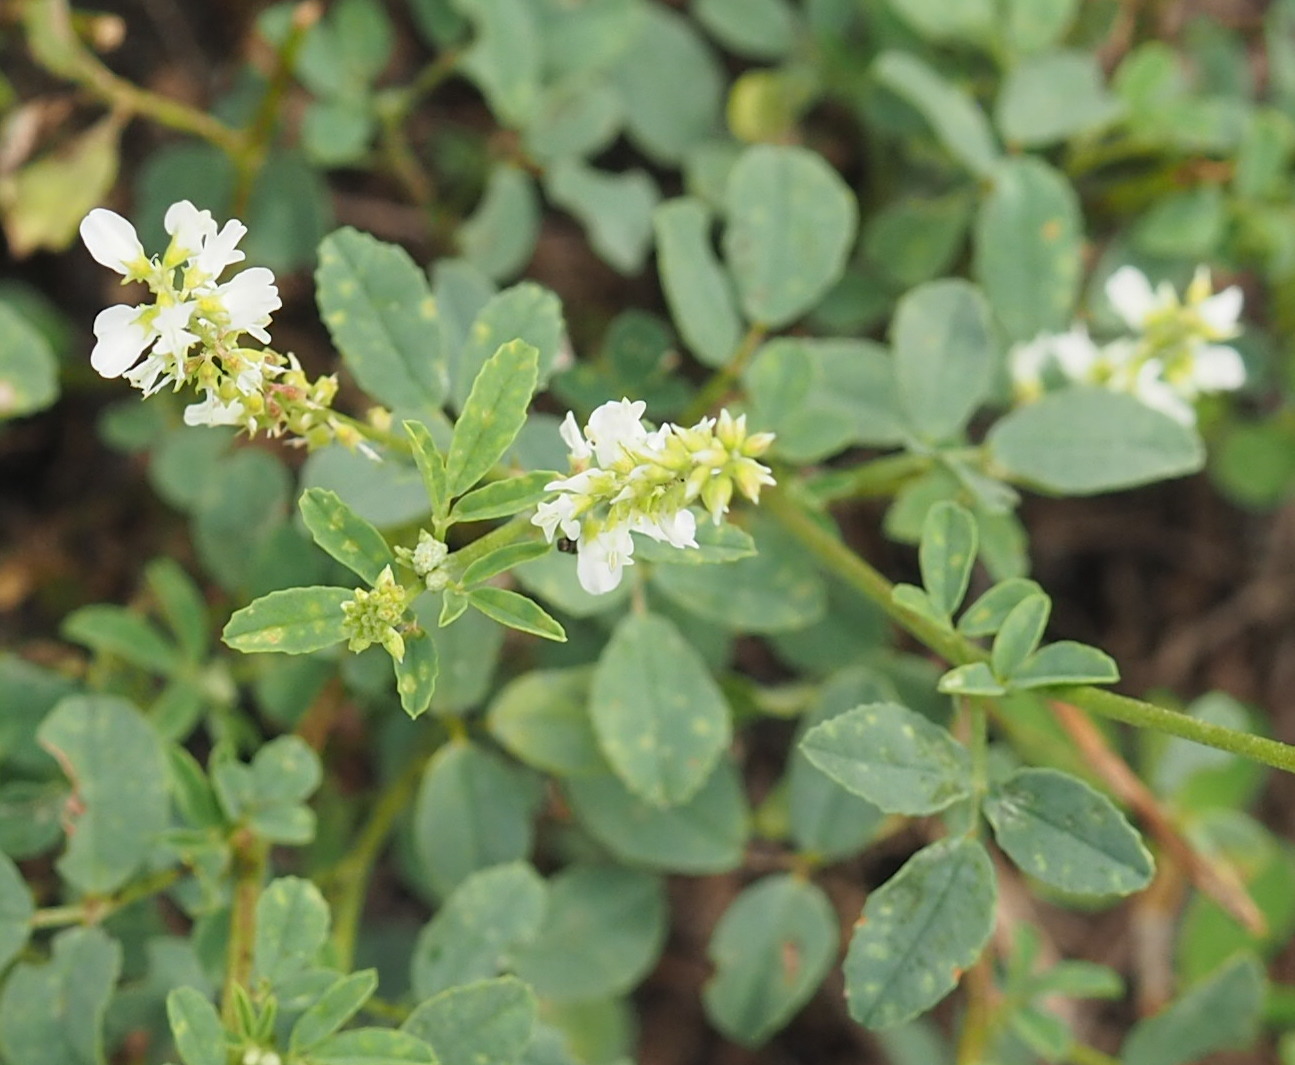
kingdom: Plantae
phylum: Tracheophyta
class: Magnoliopsida
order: Fabales
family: Fabaceae
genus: Melilotus
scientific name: Melilotus albus
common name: White melilot
